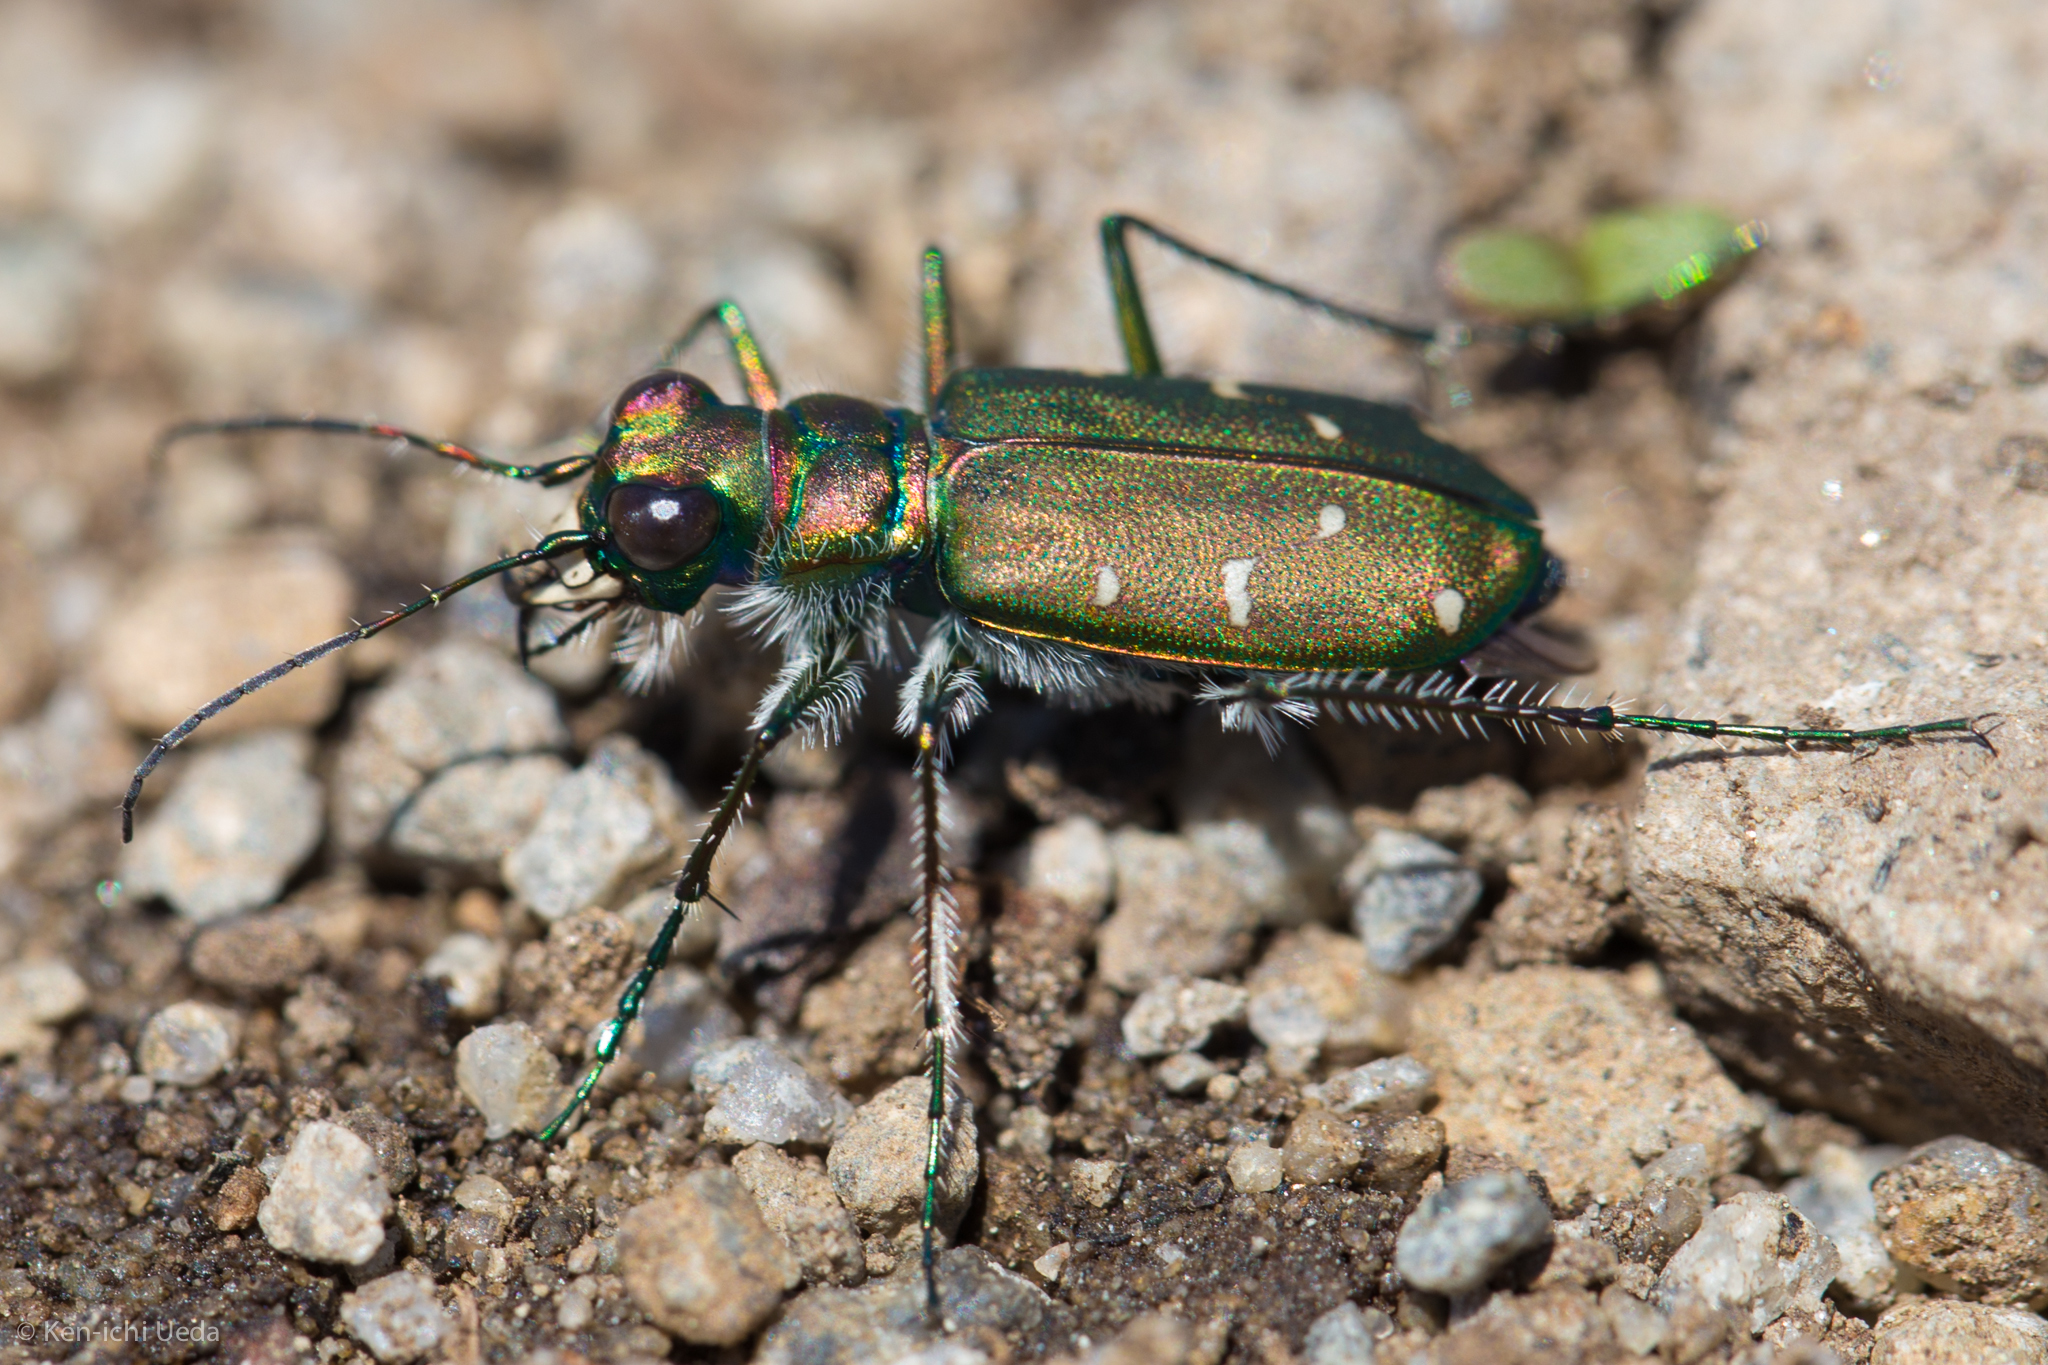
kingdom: Animalia
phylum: Arthropoda
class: Insecta
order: Coleoptera
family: Carabidae
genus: Cicindela
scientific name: Cicindela depressula
